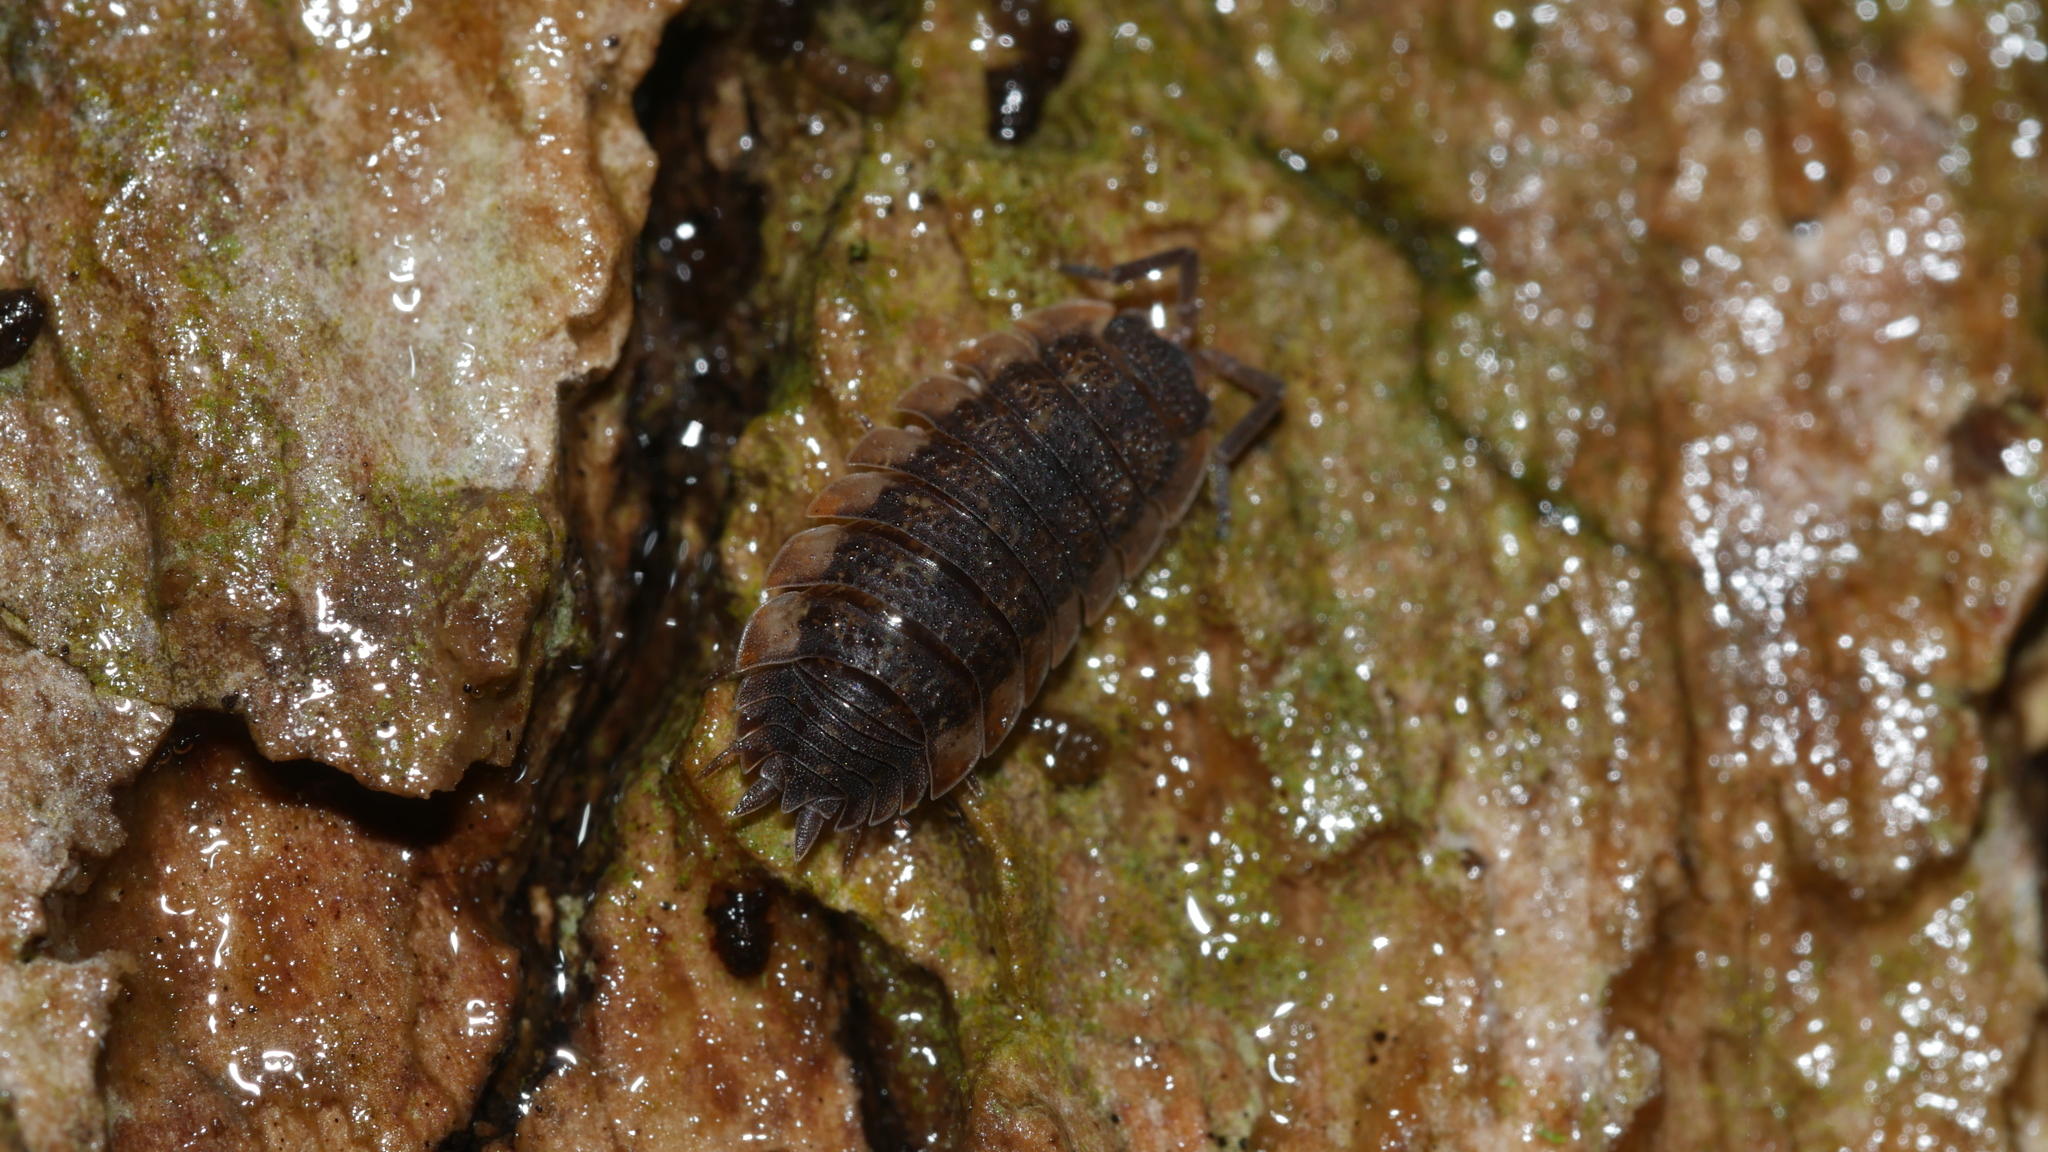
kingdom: Animalia
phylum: Arthropoda
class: Malacostraca
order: Isopoda
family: Porcellionidae
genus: Porcellio
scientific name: Porcellio scaber
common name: Common rough woodlouse
